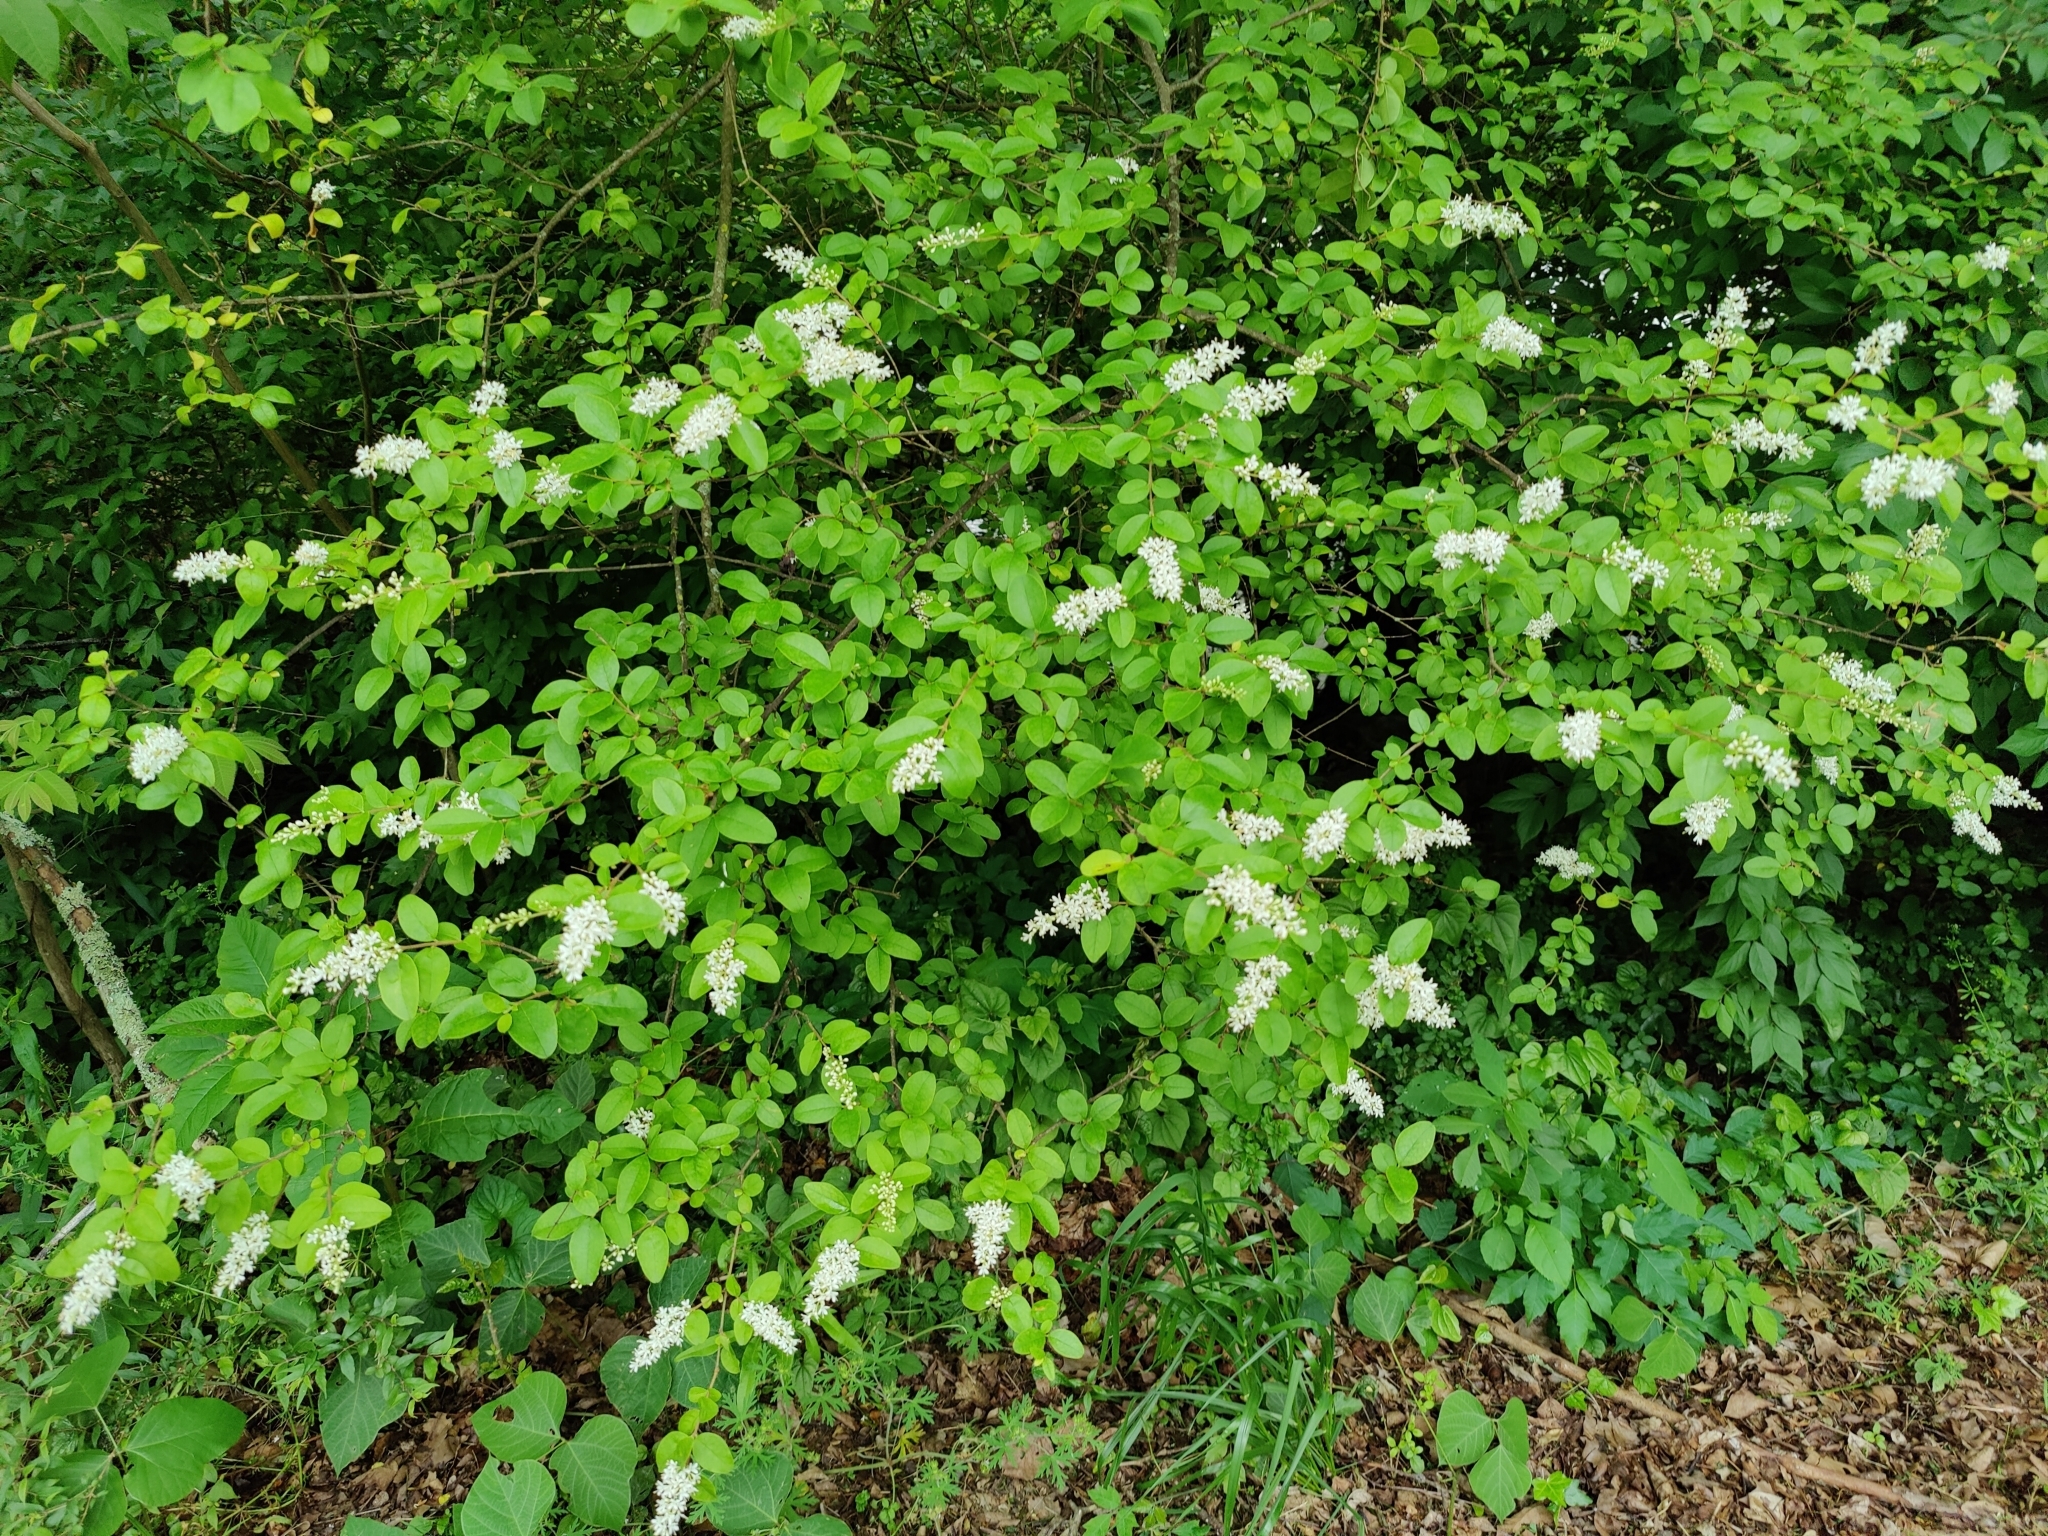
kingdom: Plantae
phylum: Tracheophyta
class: Magnoliopsida
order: Lamiales
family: Oleaceae
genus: Ligustrum
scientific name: Ligustrum sinense
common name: Chinese privet
